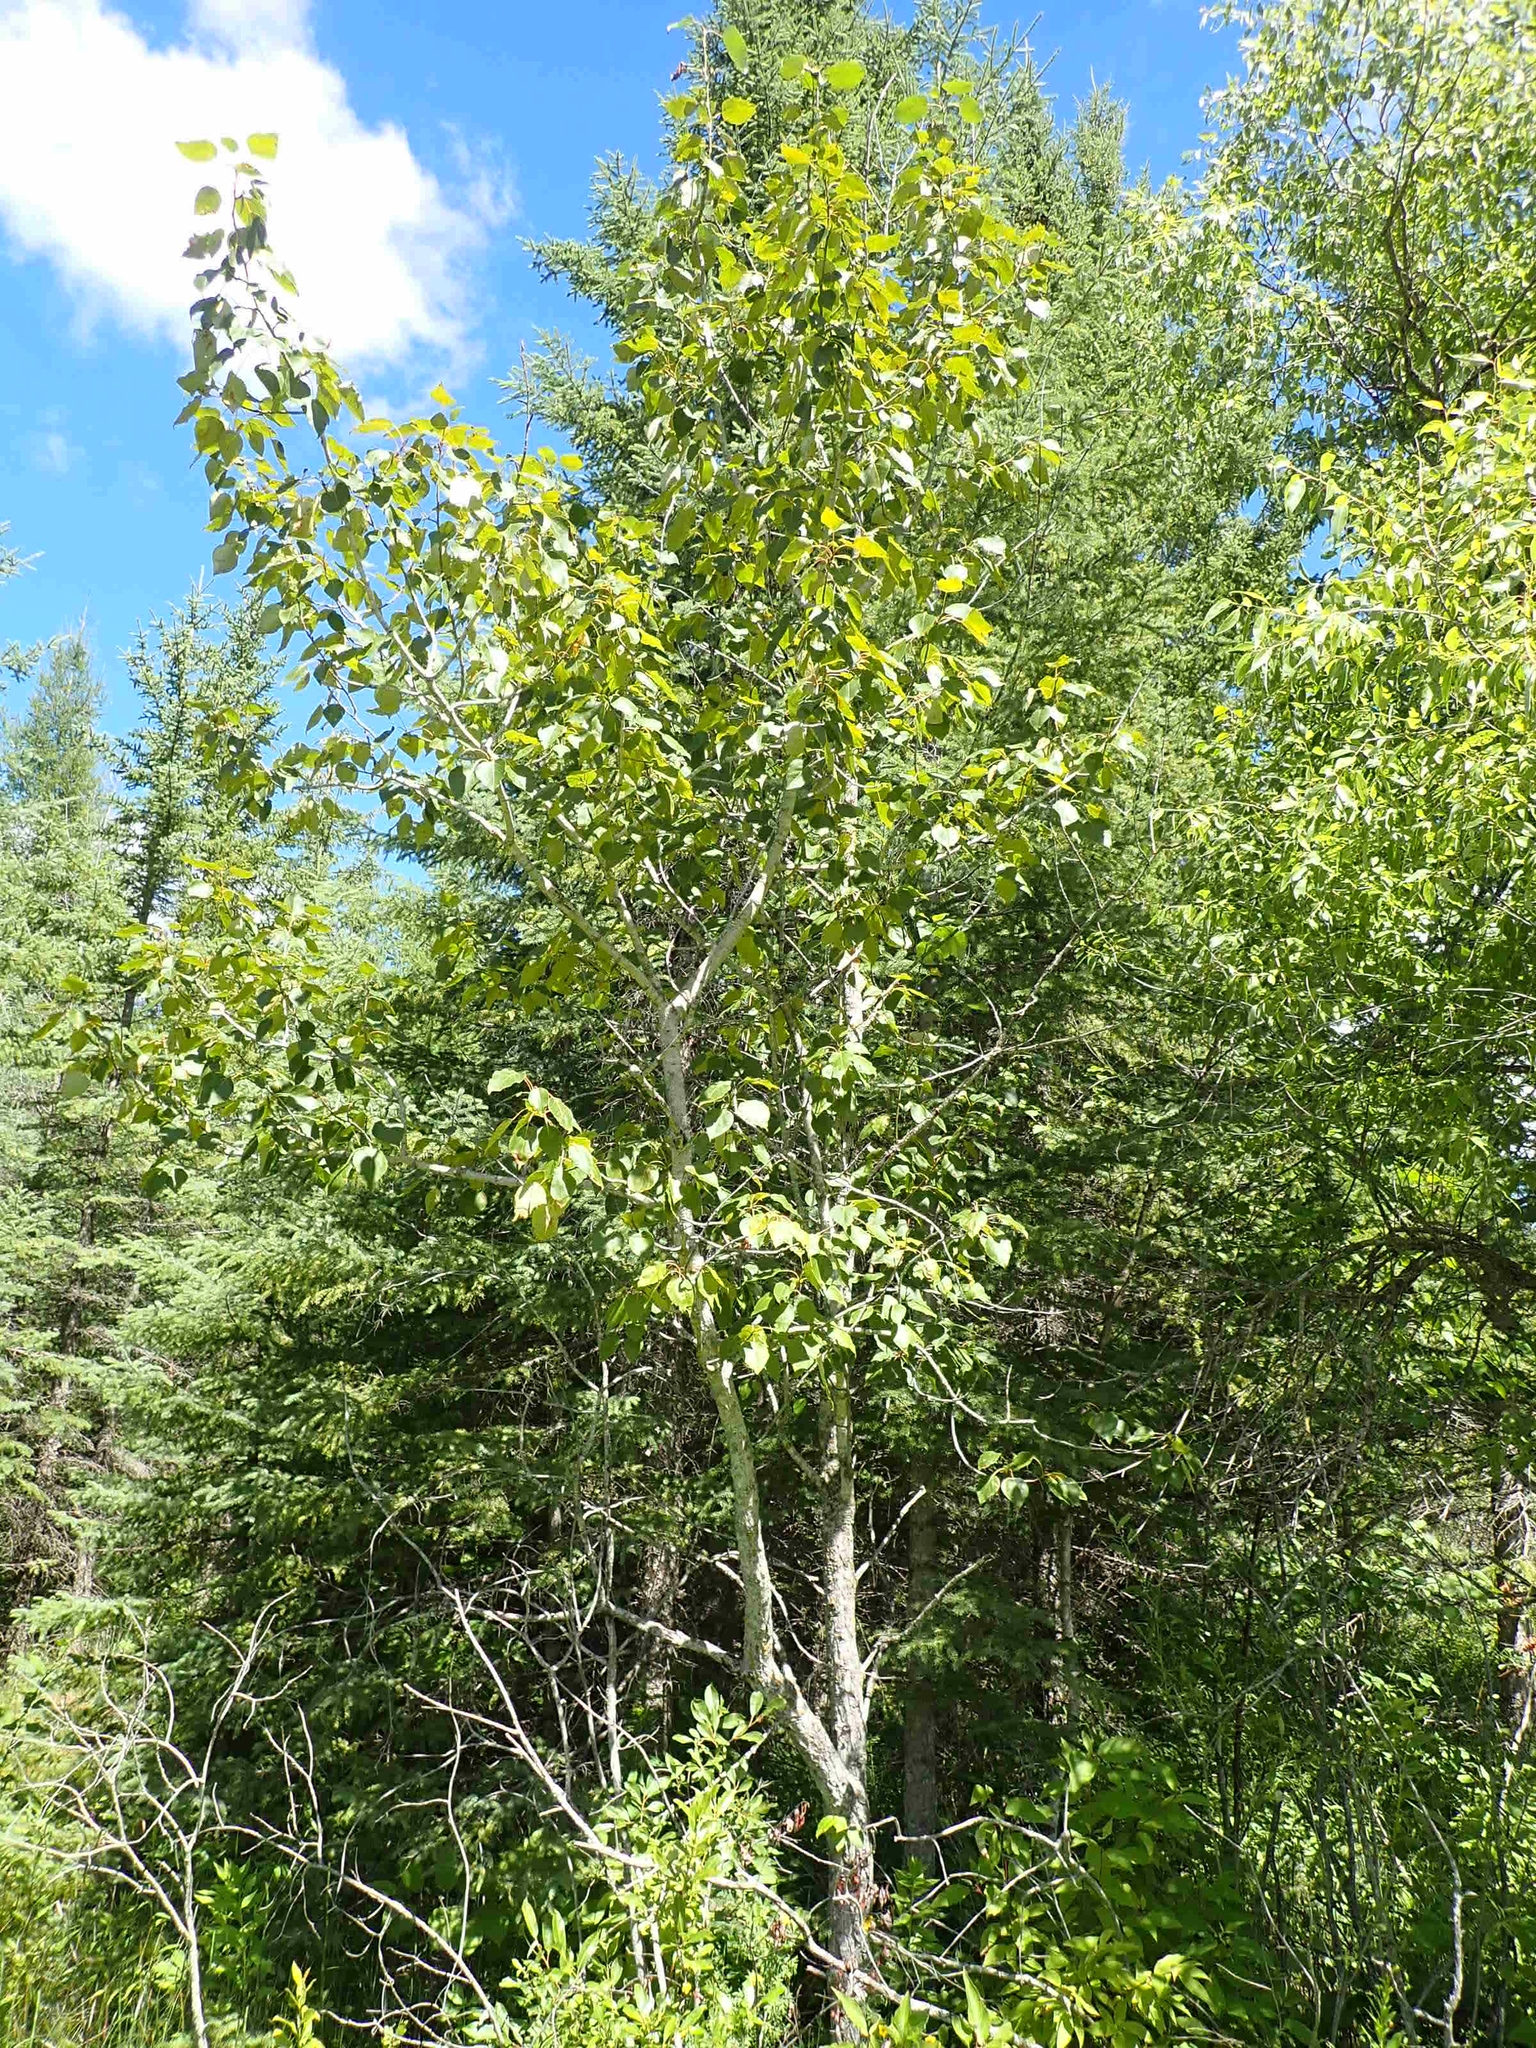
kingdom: Plantae
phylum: Tracheophyta
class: Magnoliopsida
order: Malpighiales
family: Salicaceae
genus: Populus
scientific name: Populus balsamifera
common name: Balsam poplar
